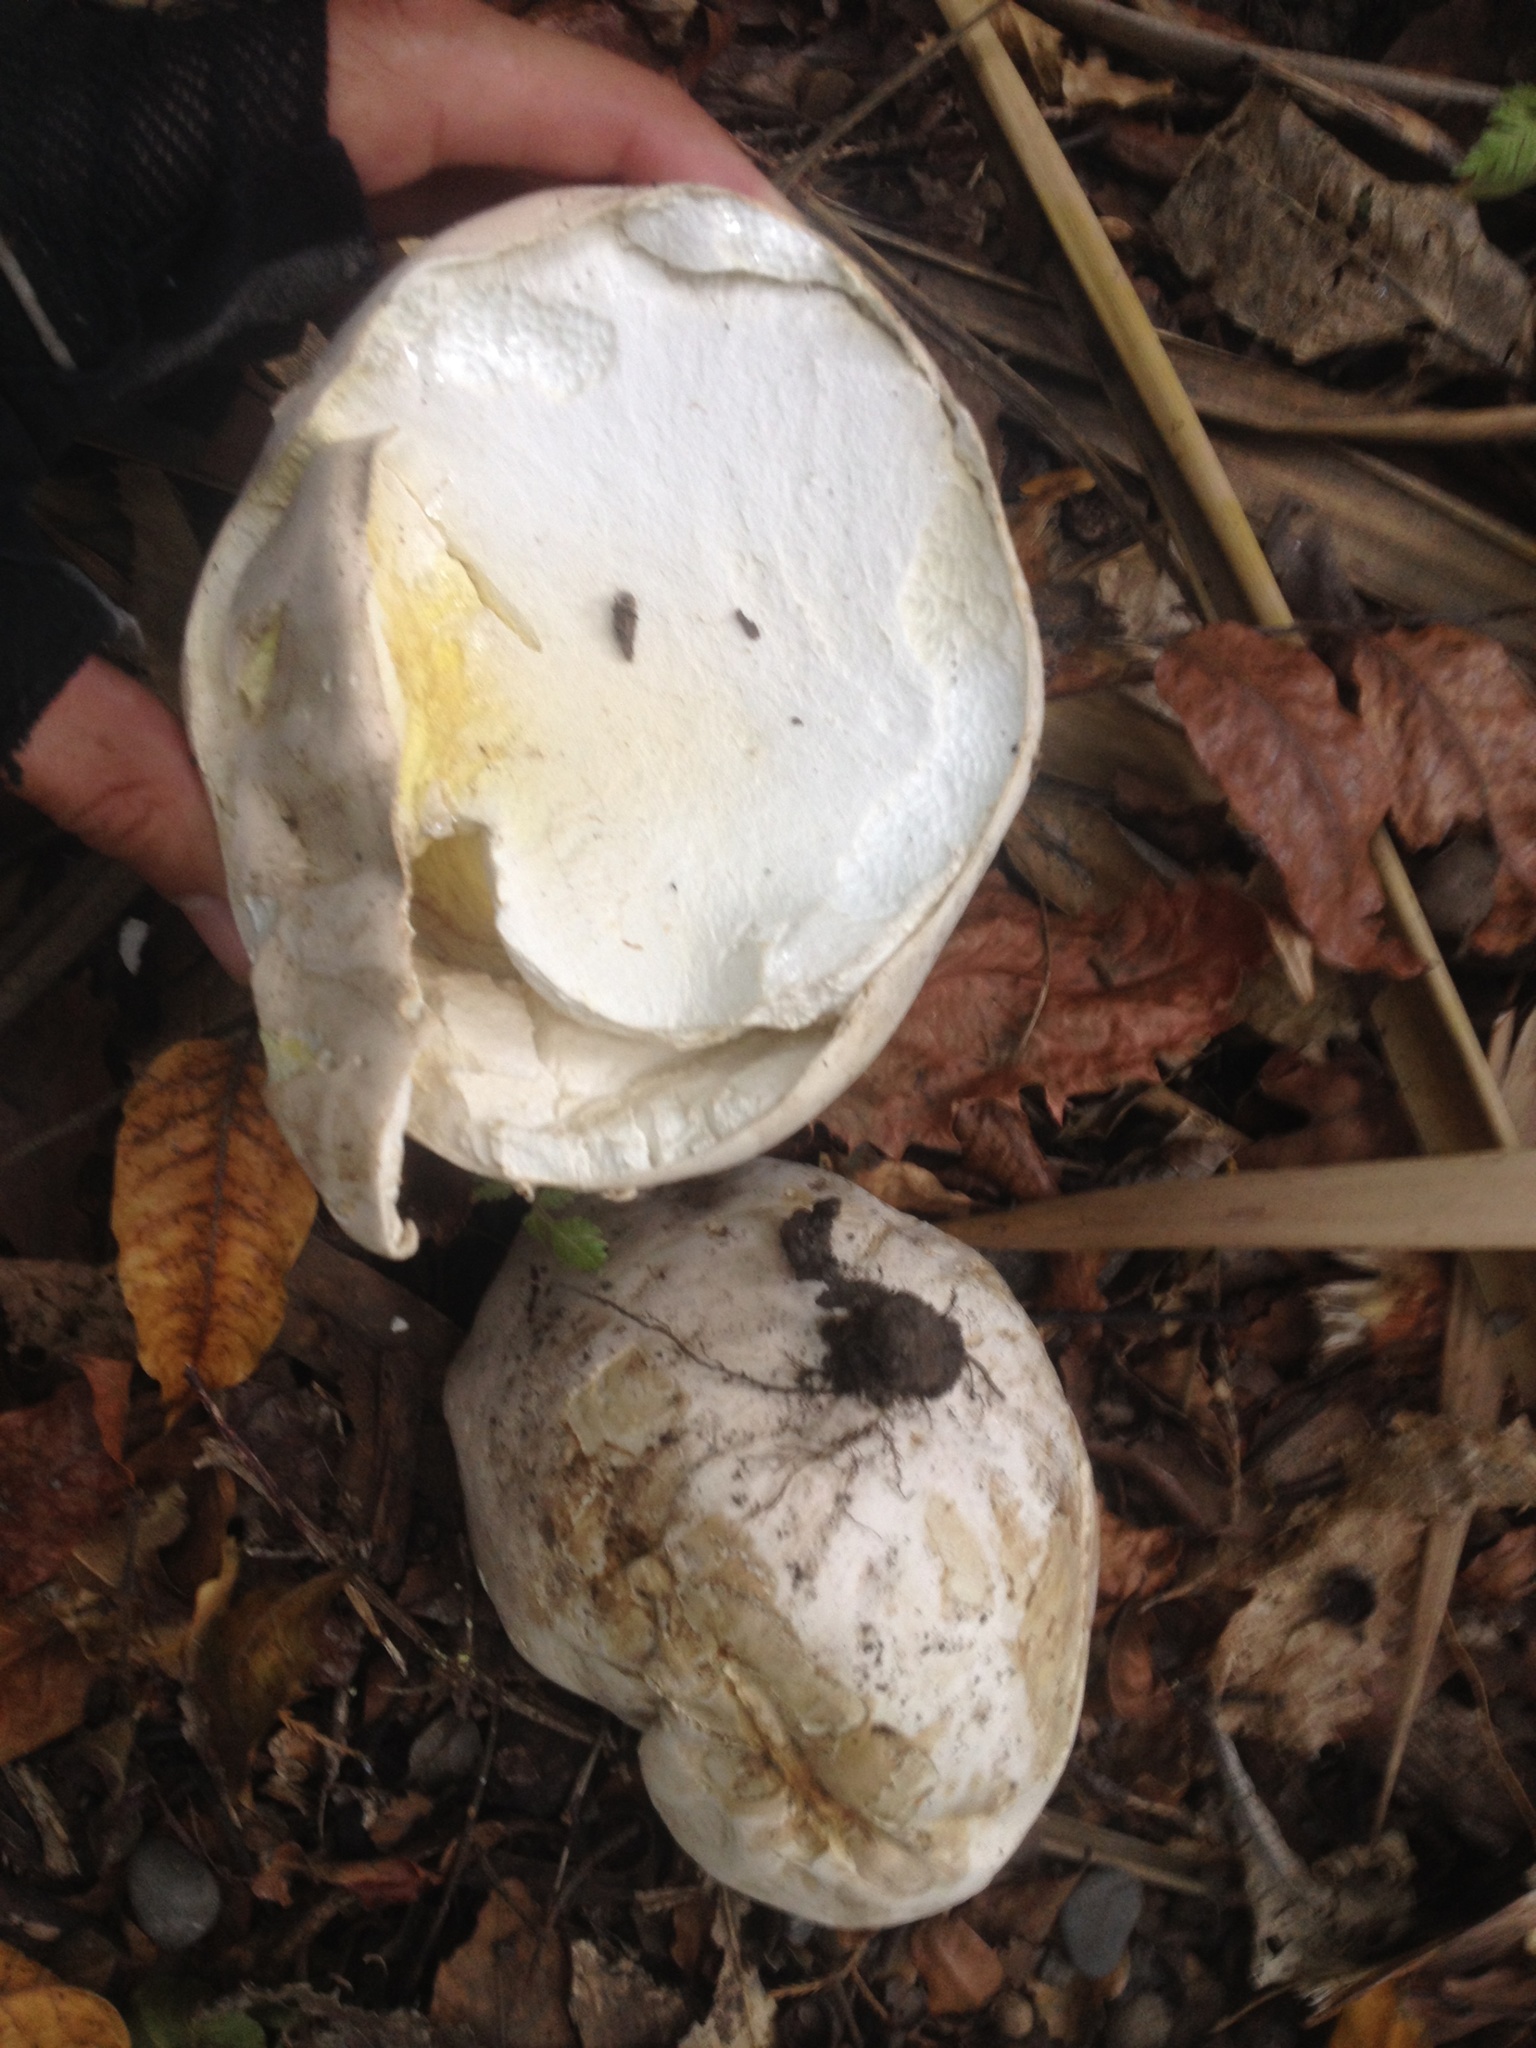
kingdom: Fungi
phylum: Basidiomycota
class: Agaricomycetes
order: Agaricales
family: Lycoperdaceae
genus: Calvatia
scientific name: Calvatia gigantea
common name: Giant puffball
